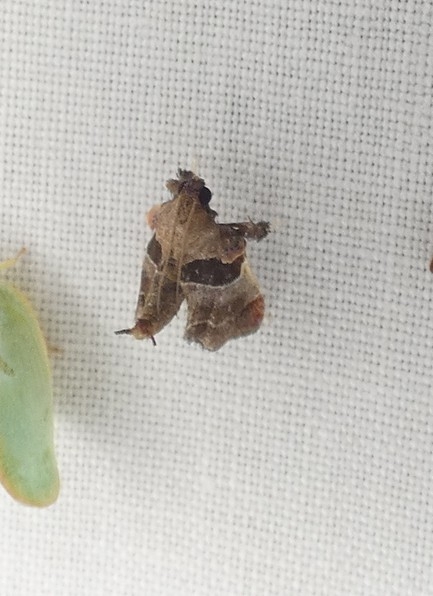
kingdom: Animalia
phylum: Arthropoda
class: Insecta
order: Lepidoptera
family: Pyralidae
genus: Tosale
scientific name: Tosale oviplagalis
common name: Dimorphic tosale moth
